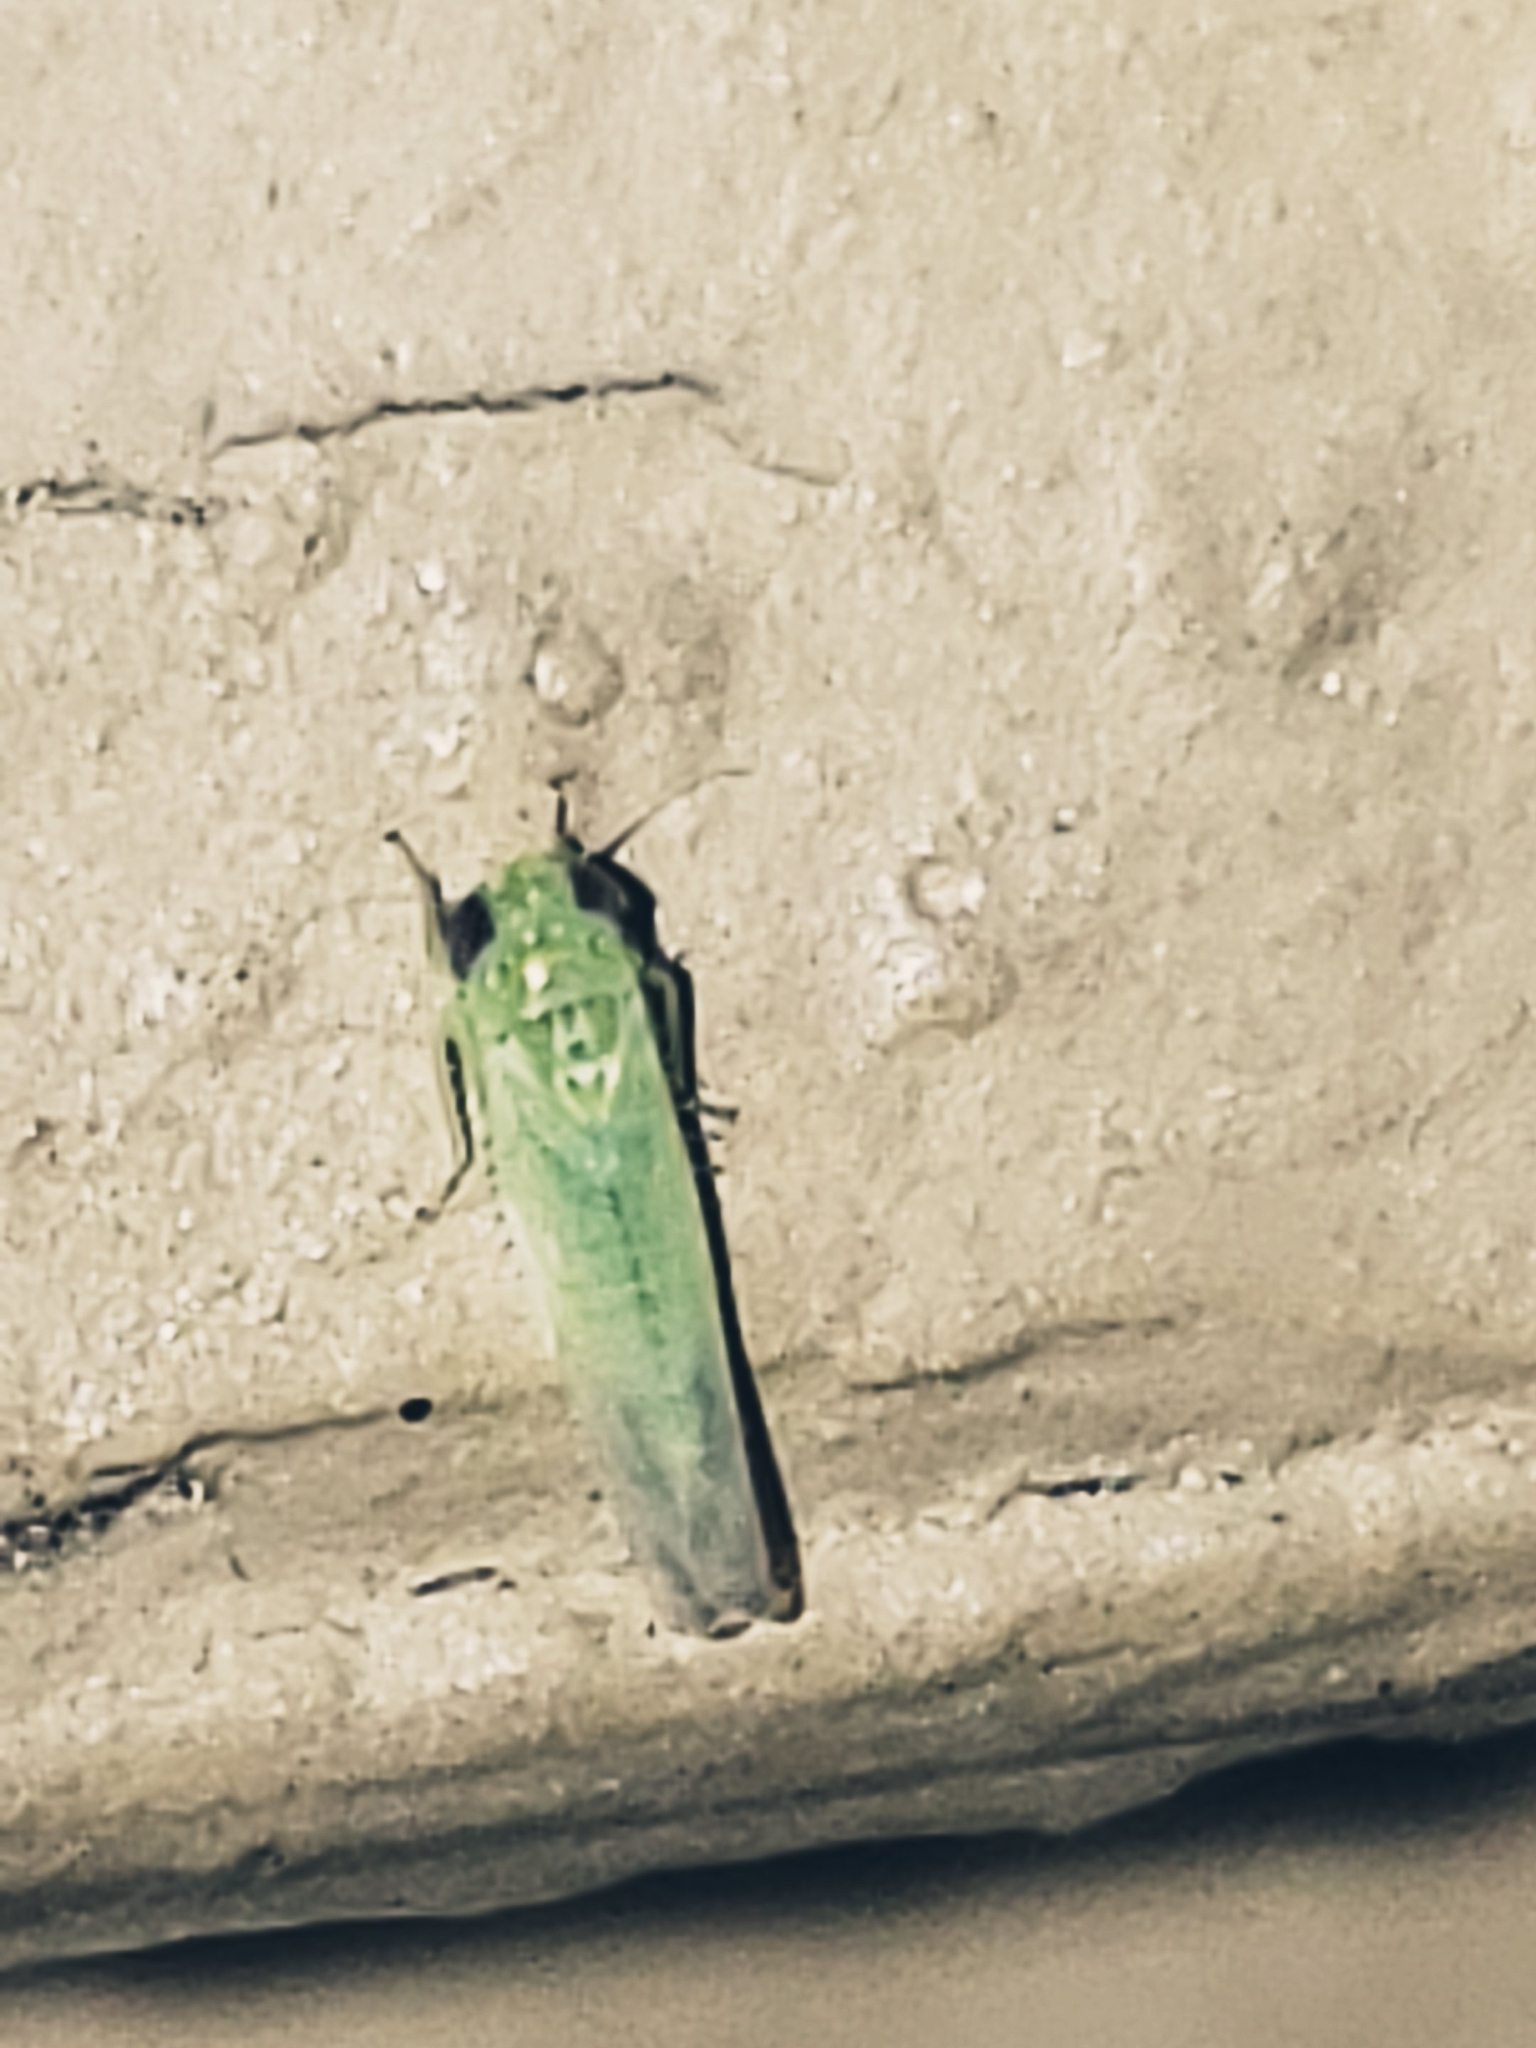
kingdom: Animalia
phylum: Arthropoda
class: Insecta
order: Hemiptera
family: Cicadellidae
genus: Empoasca
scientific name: Empoasca fabae
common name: Potato leafhopper
